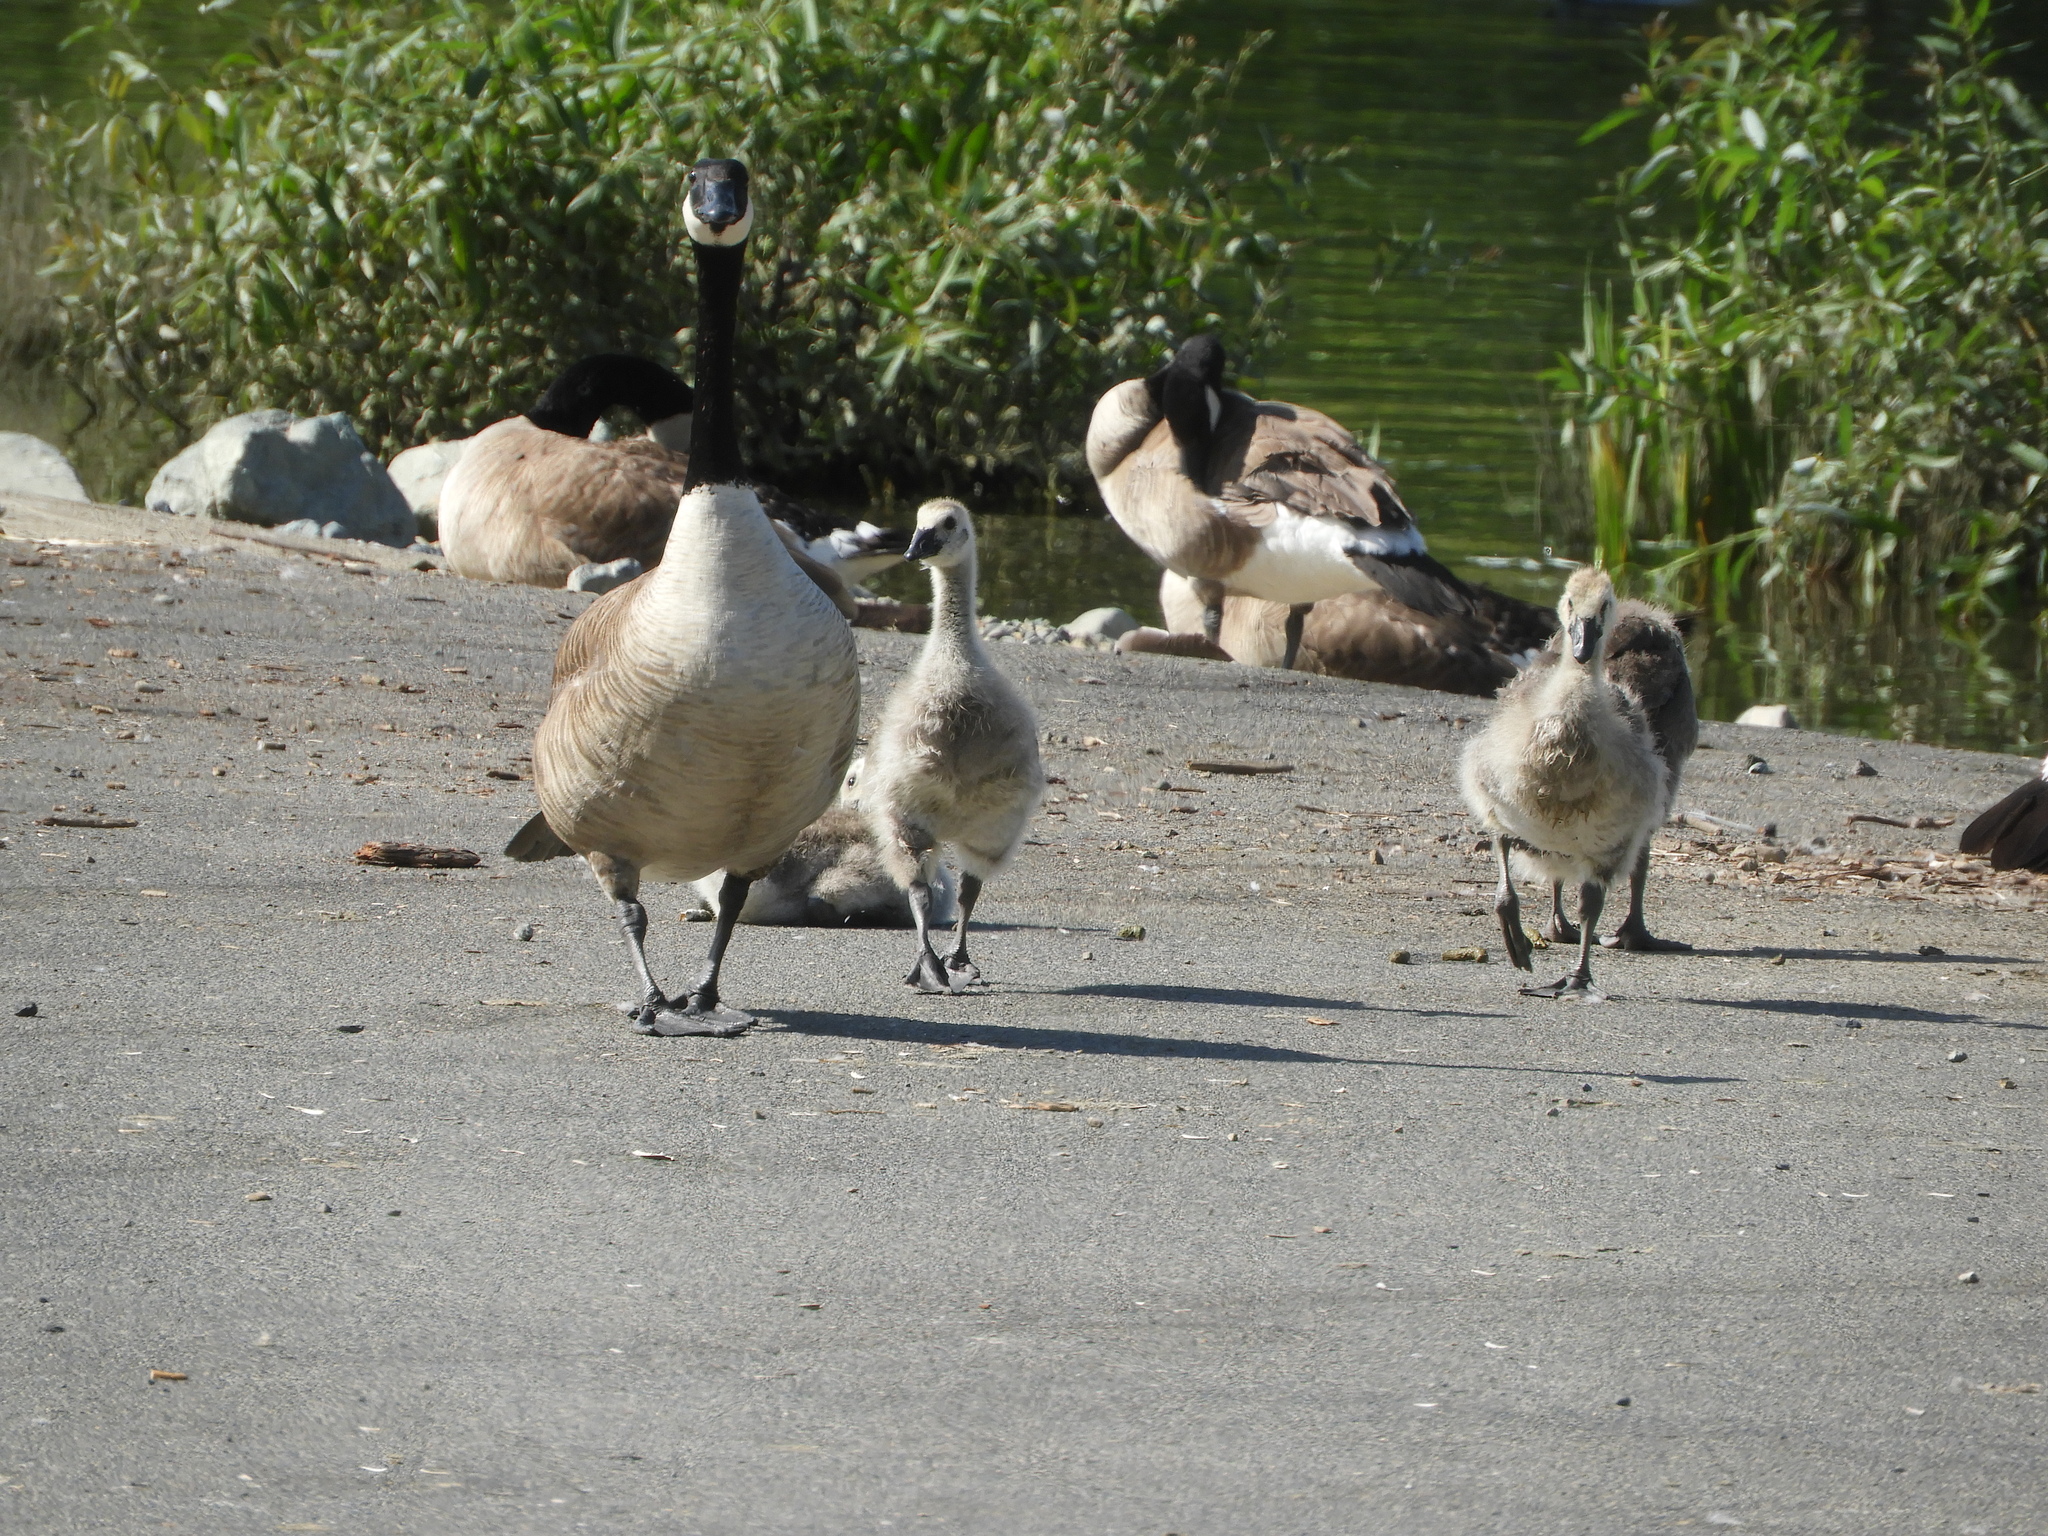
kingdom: Animalia
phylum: Chordata
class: Aves
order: Anseriformes
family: Anatidae
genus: Branta
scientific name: Branta canadensis
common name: Canada goose
